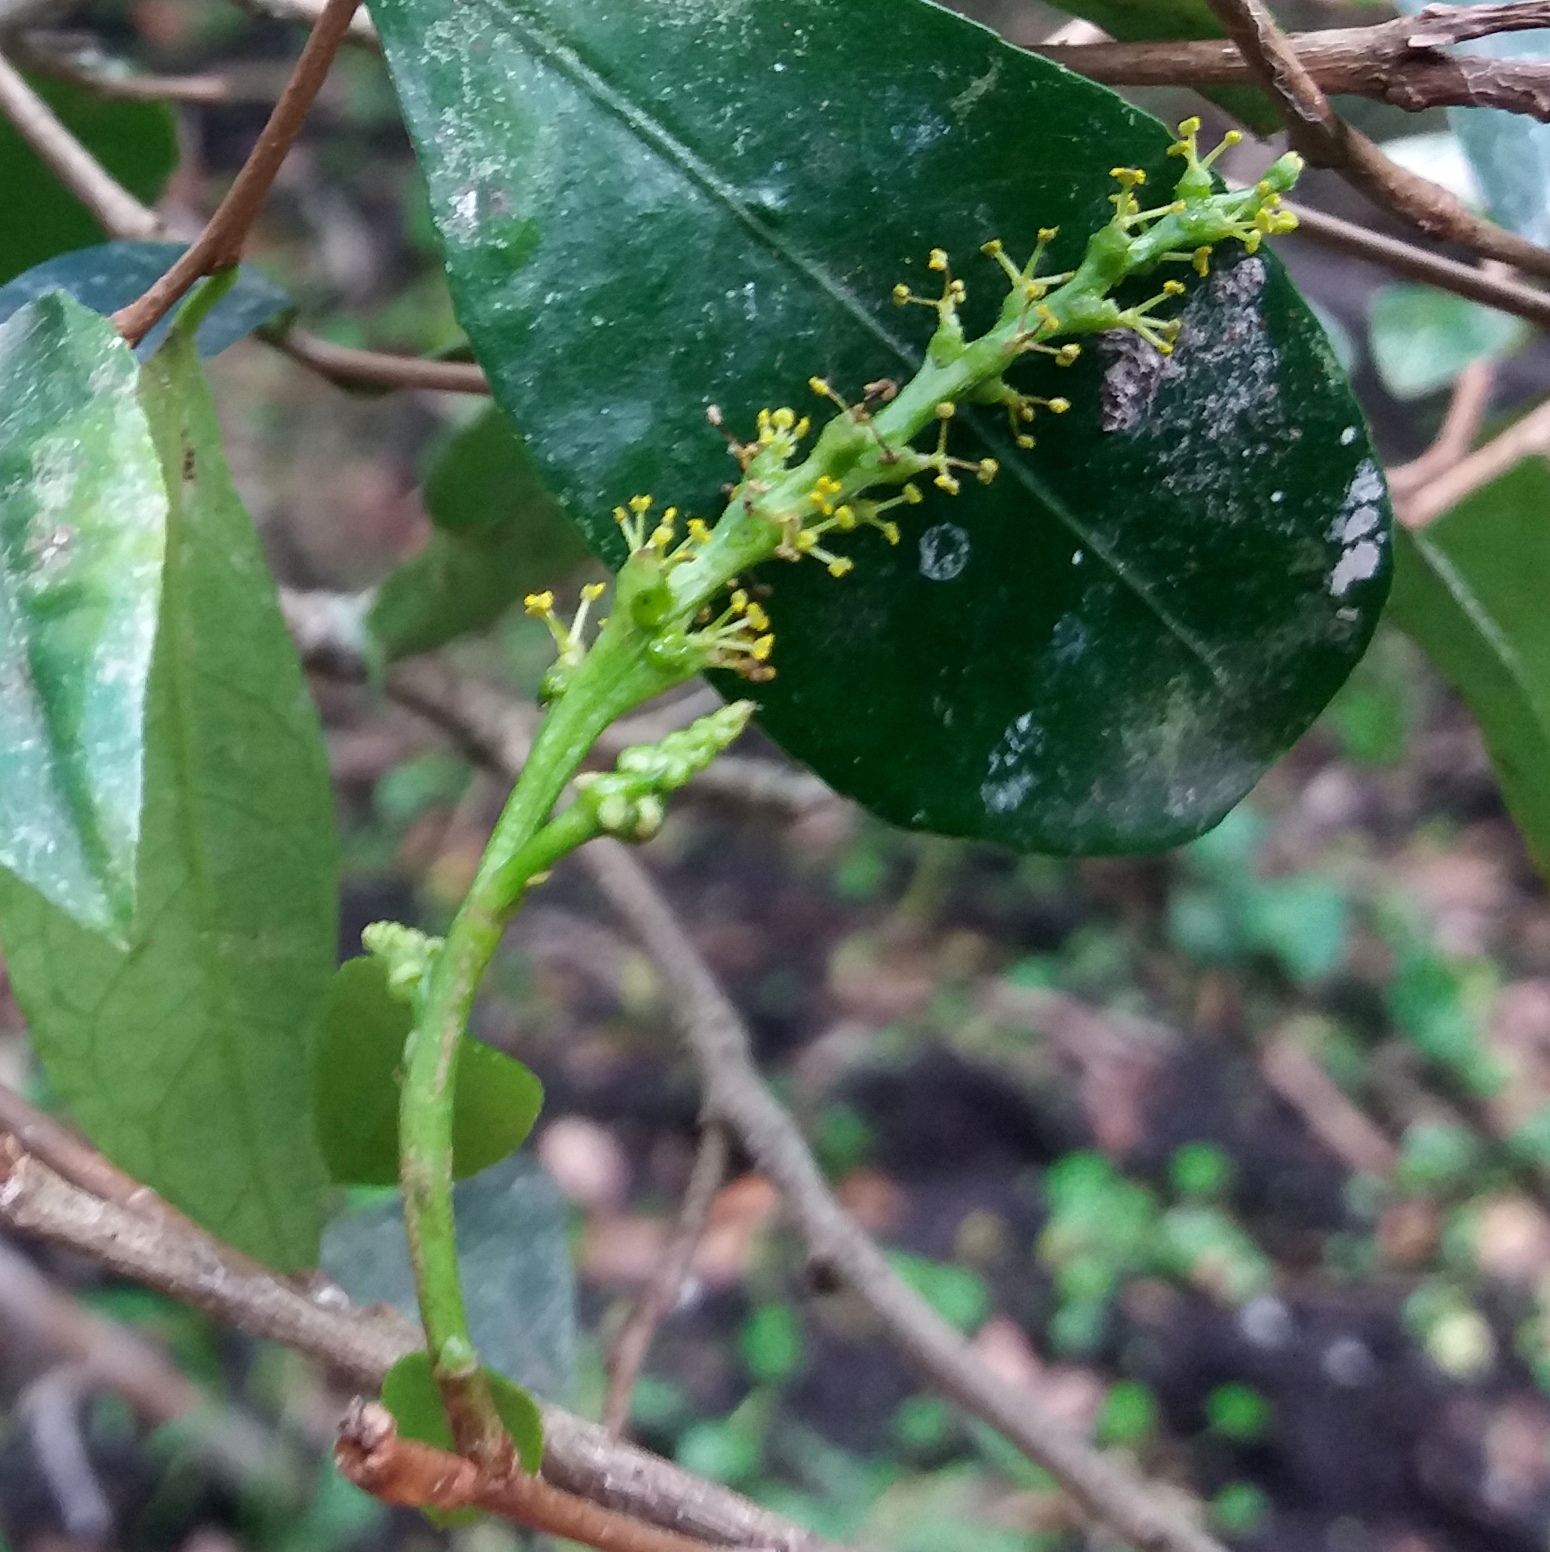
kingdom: Plantae
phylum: Tracheophyta
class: Magnoliopsida
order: Malpighiales
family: Euphorbiaceae
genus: Sebastiania
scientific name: Sebastiania brasiliensis
